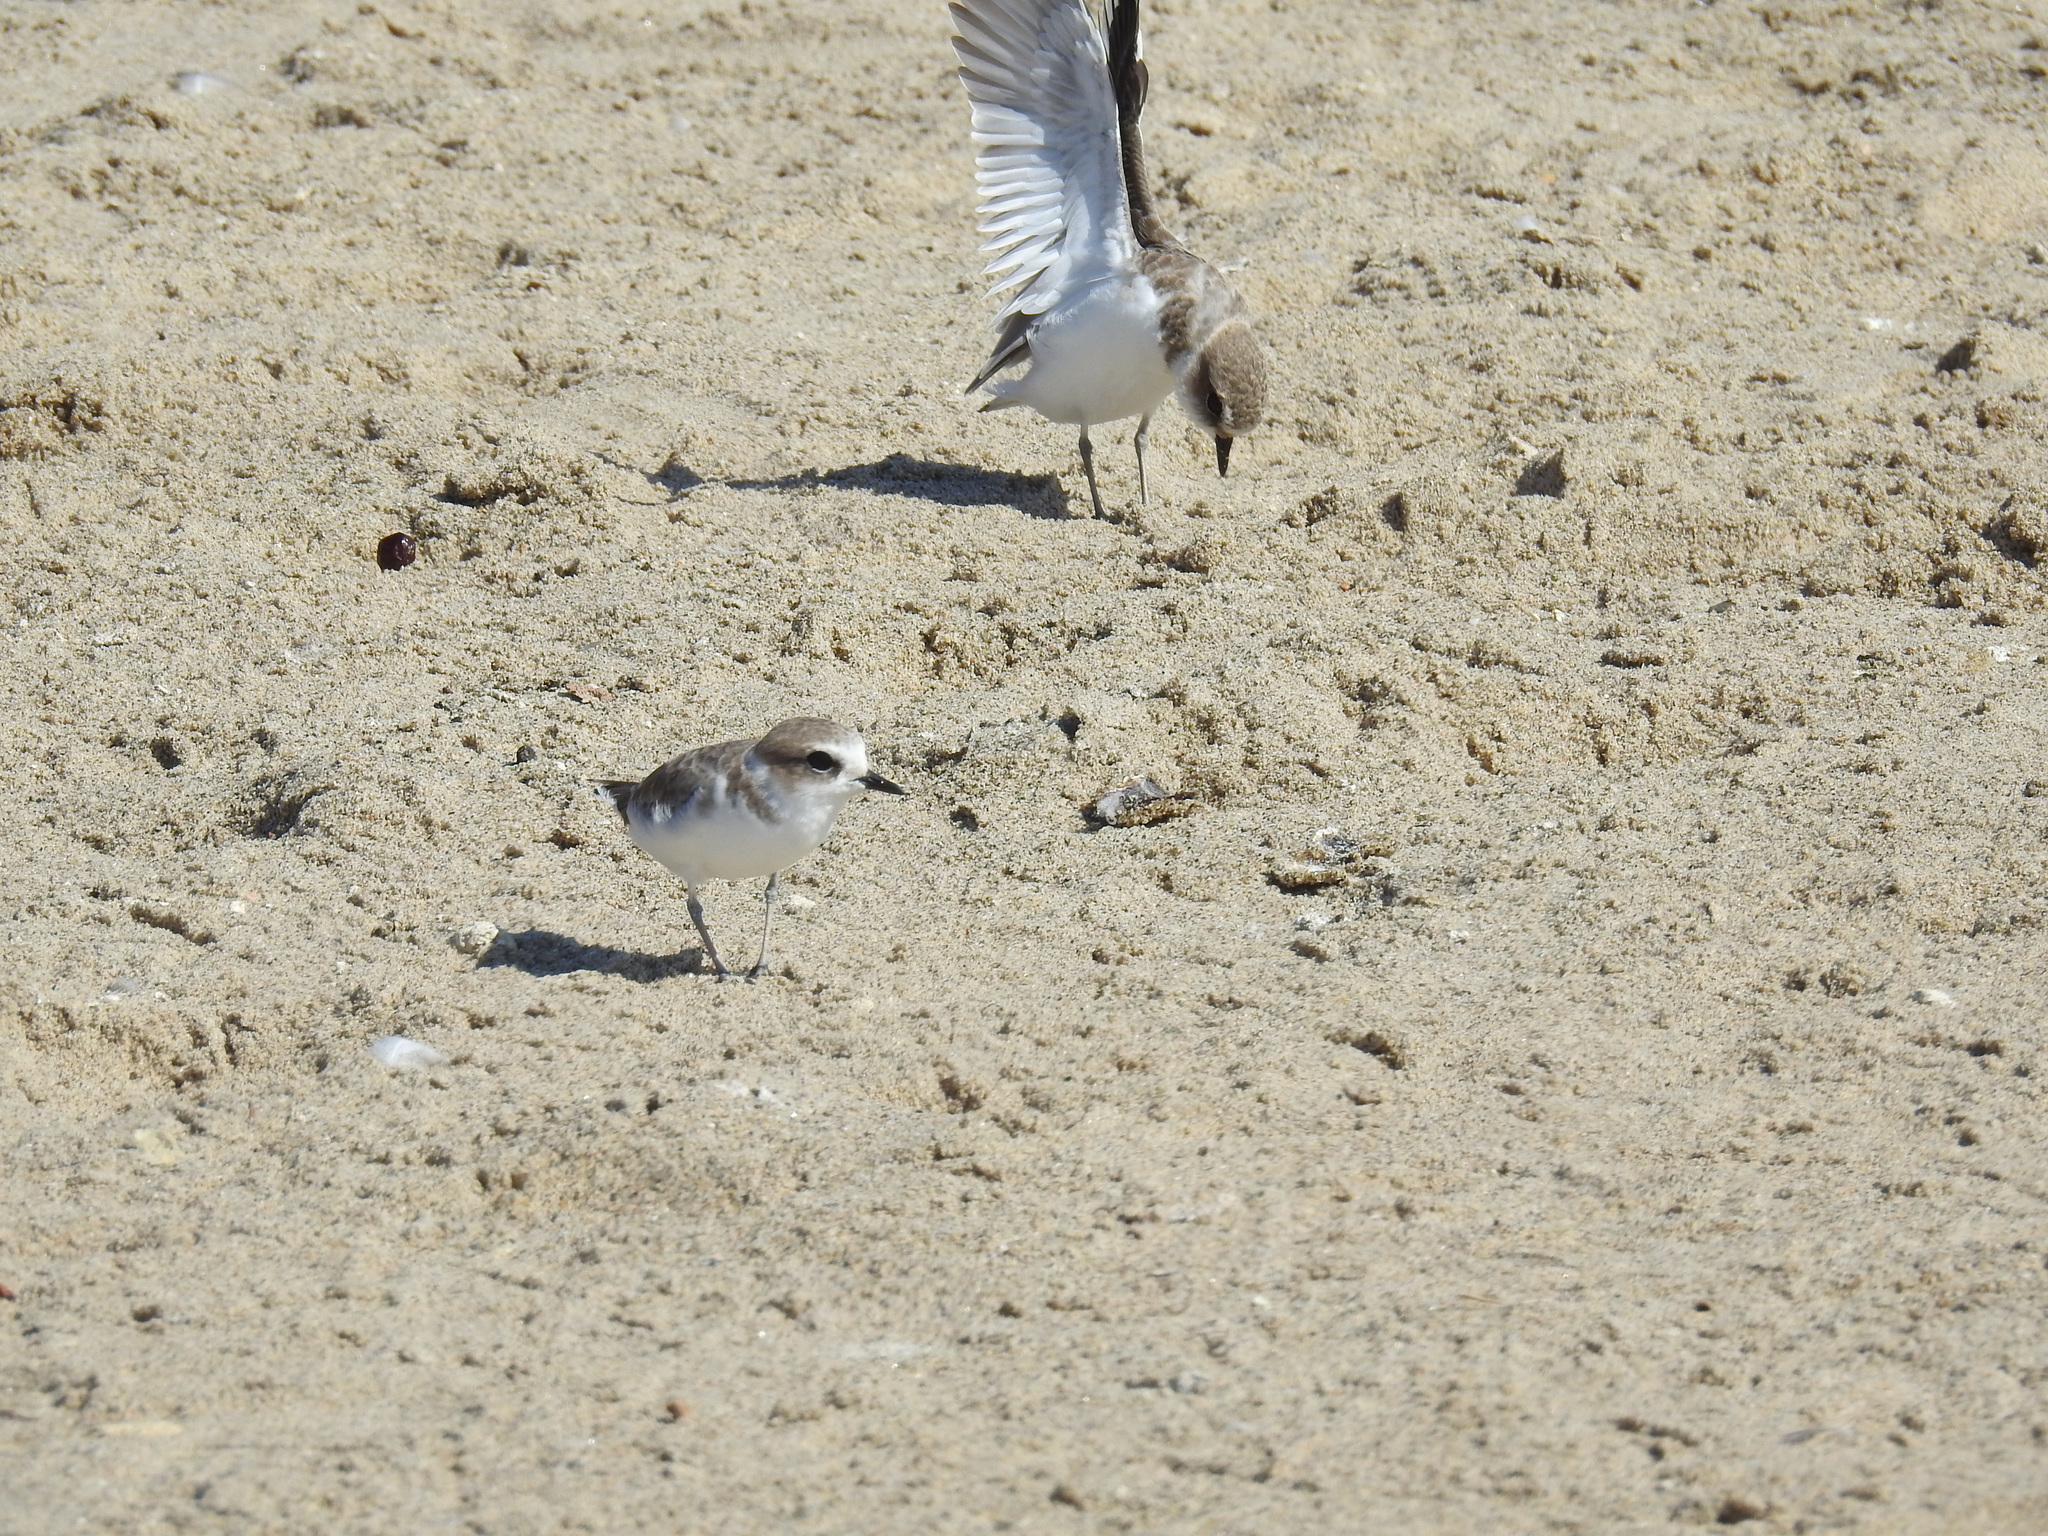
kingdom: Animalia
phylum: Chordata
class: Aves
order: Charadriiformes
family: Charadriidae
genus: Anarhynchus
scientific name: Anarhynchus
